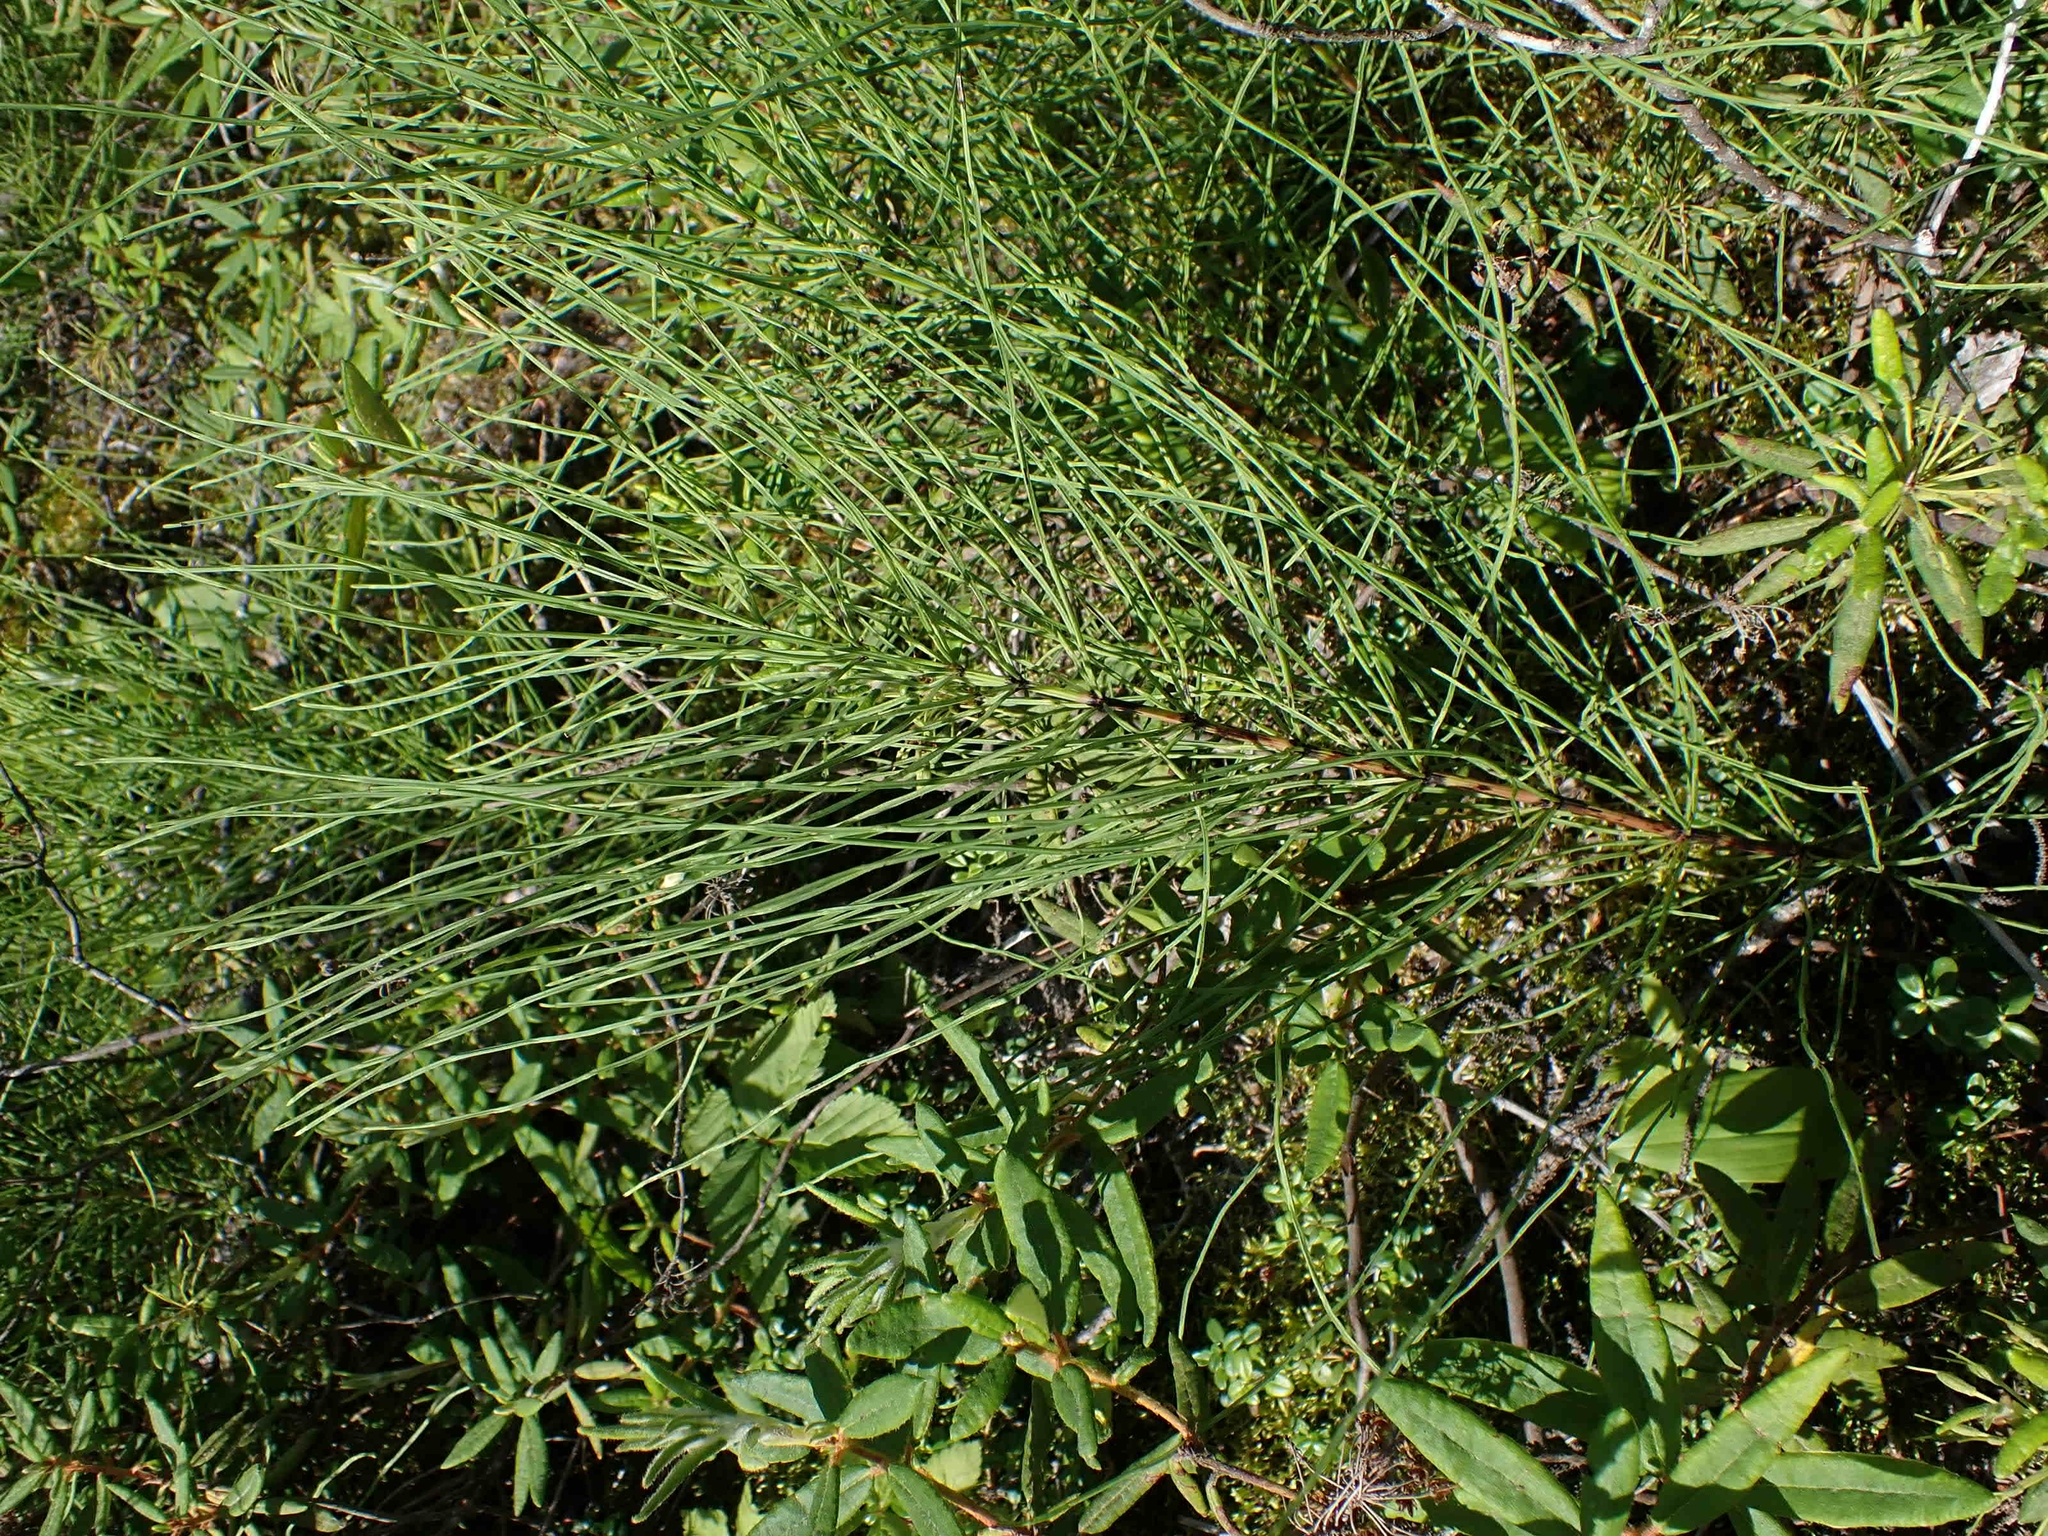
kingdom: Plantae
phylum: Tracheophyta
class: Polypodiopsida
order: Equisetales
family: Equisetaceae
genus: Equisetum
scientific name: Equisetum arvense
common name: Field horsetail
